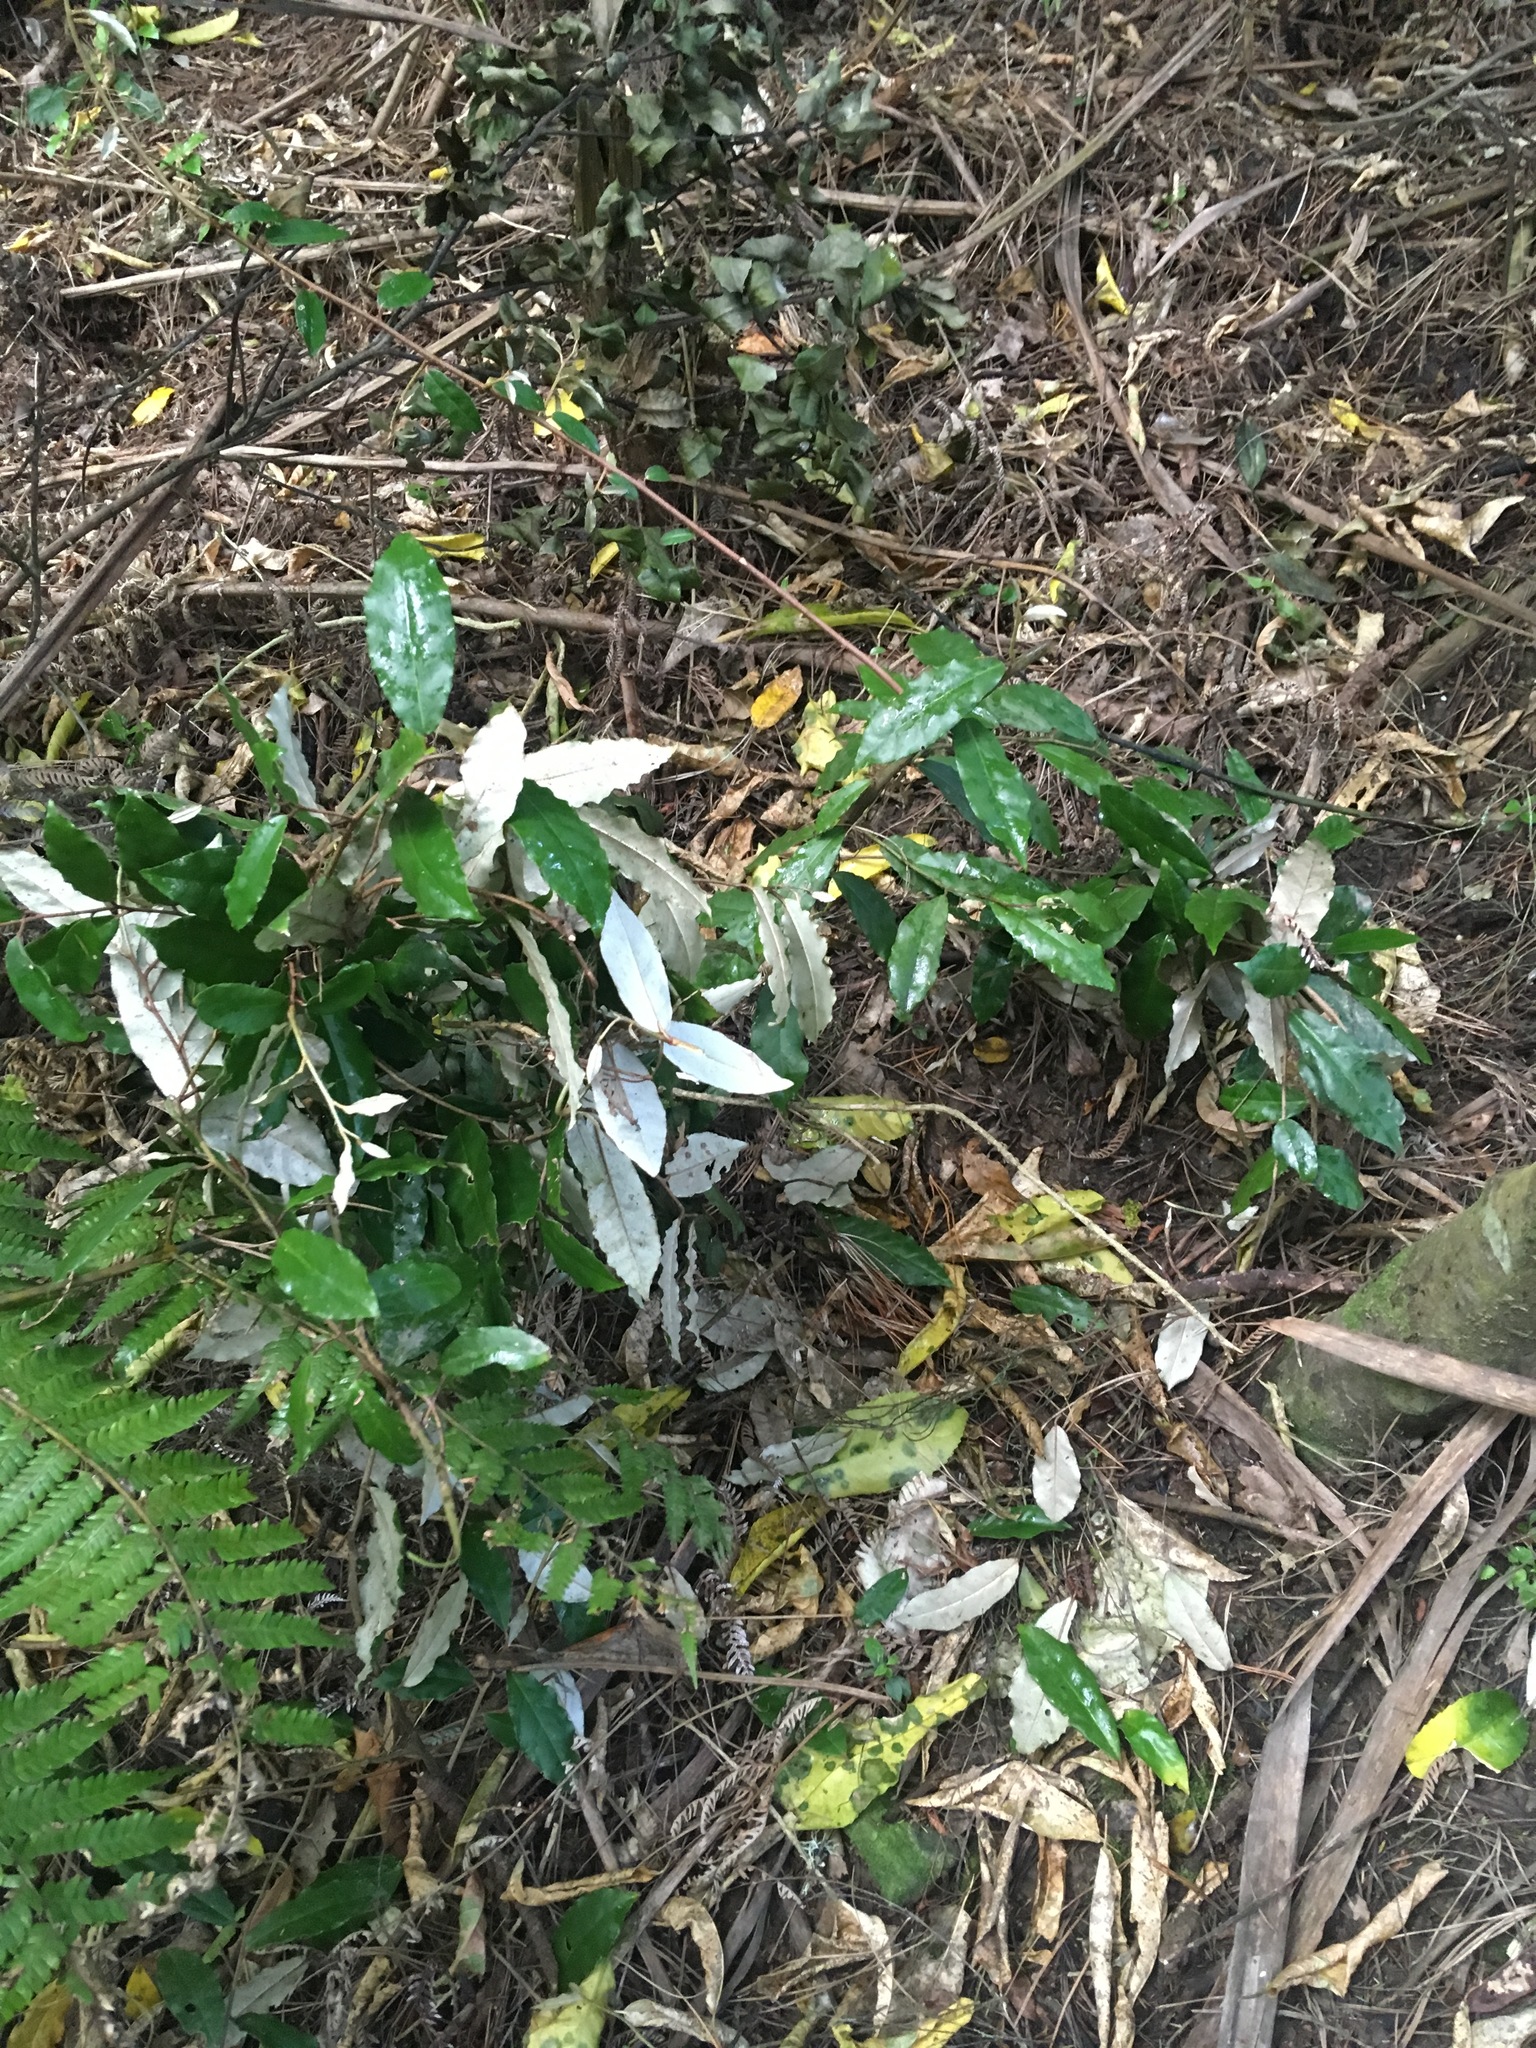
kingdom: Plantae
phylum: Tracheophyta
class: Magnoliopsida
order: Rosales
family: Elaeagnaceae
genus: Elaeagnus
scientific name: Elaeagnus reflexa
